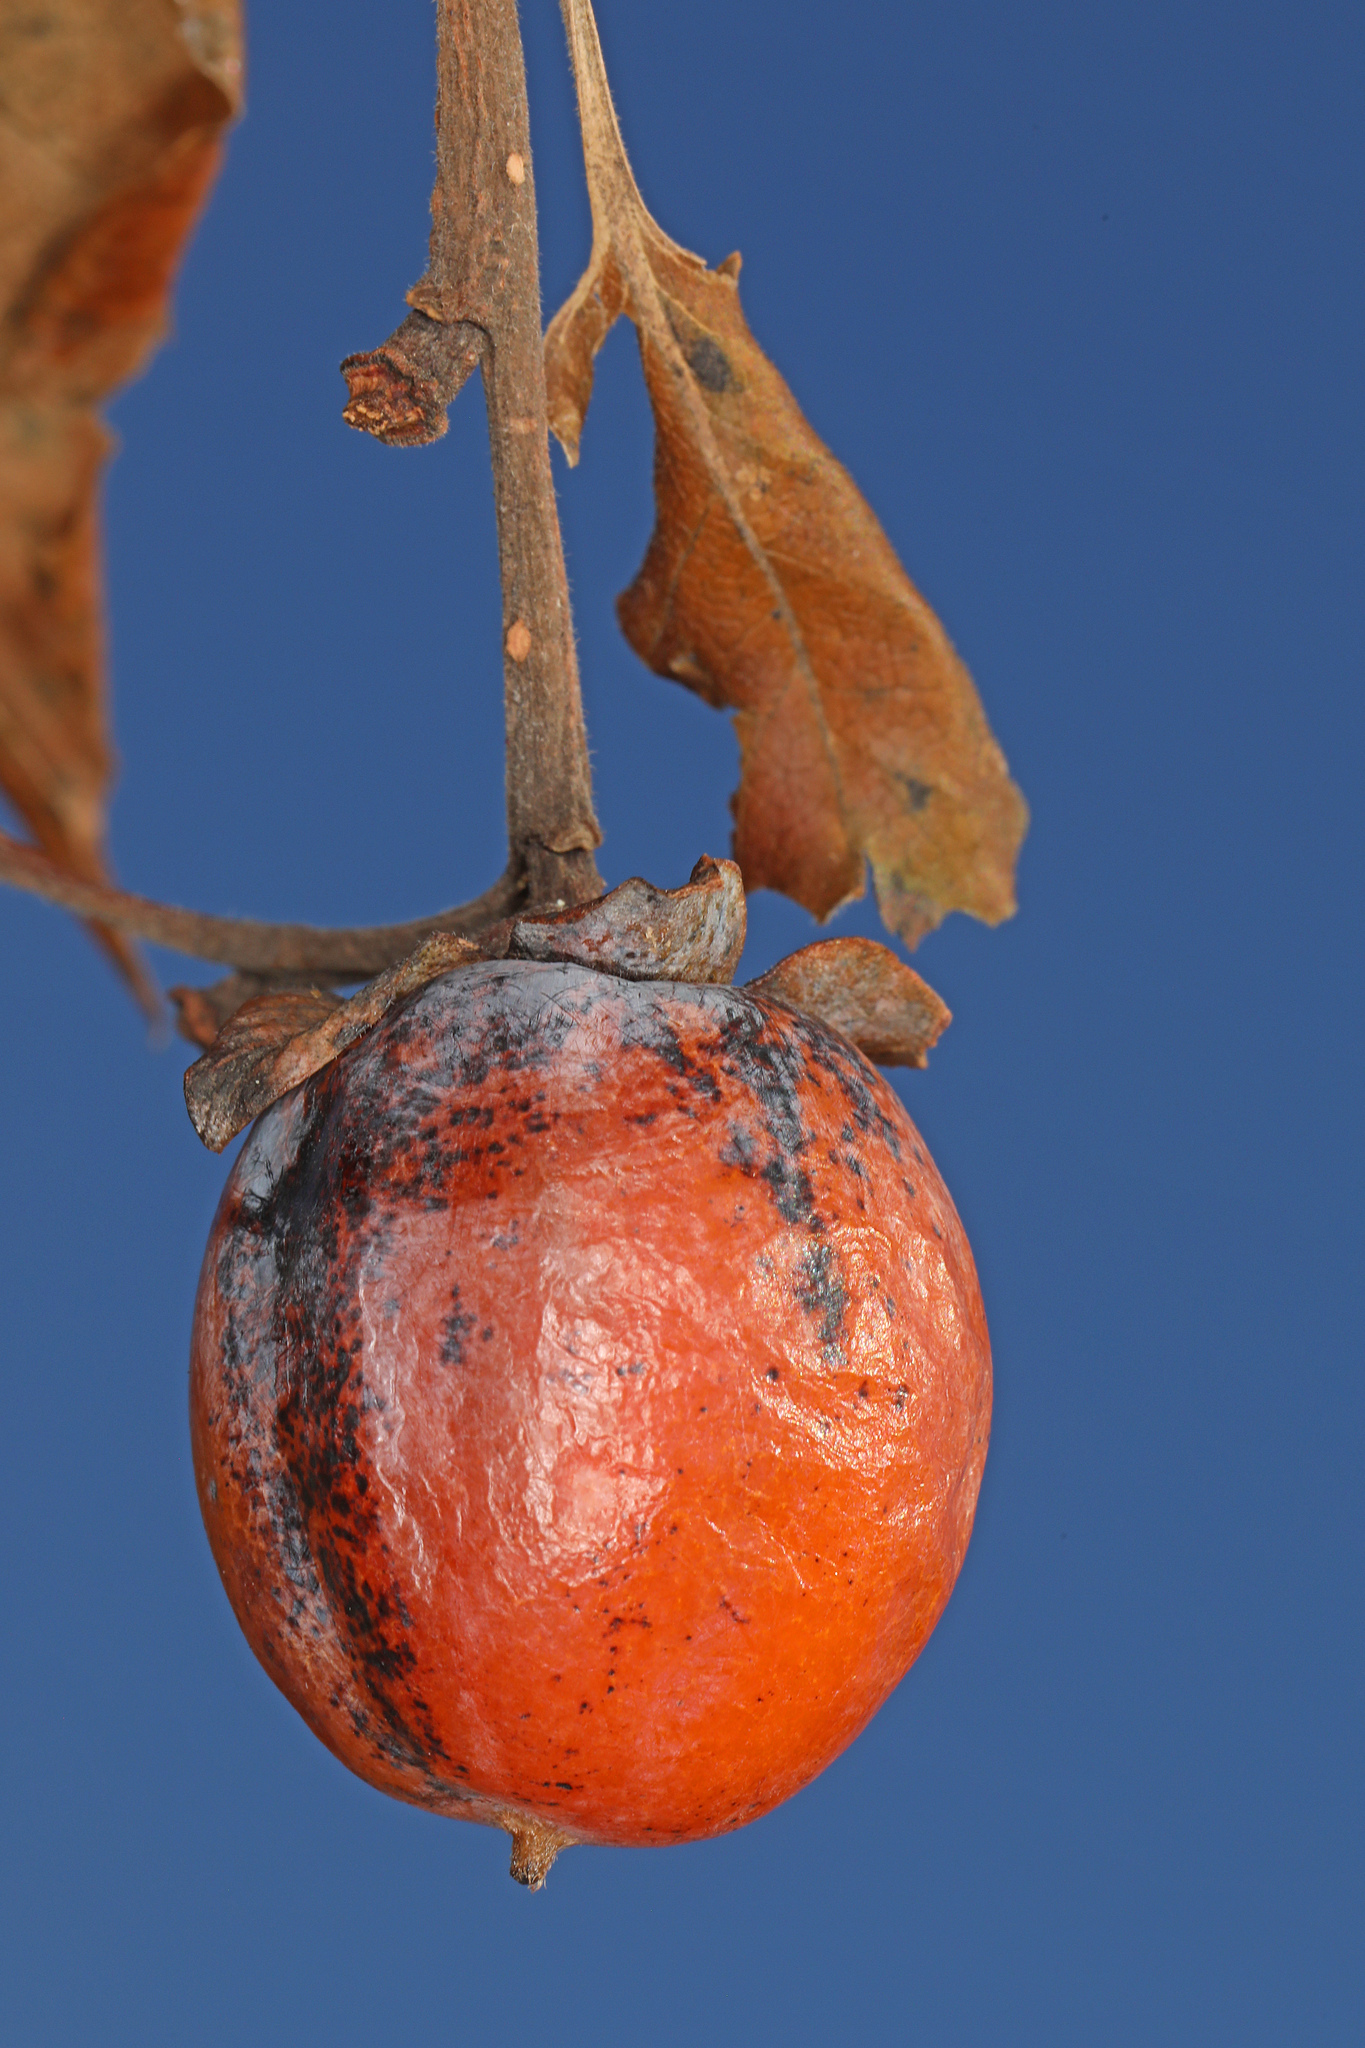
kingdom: Plantae
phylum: Tracheophyta
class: Magnoliopsida
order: Ericales
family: Ebenaceae
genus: Diospyros
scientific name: Diospyros virginiana
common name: Persimmon
